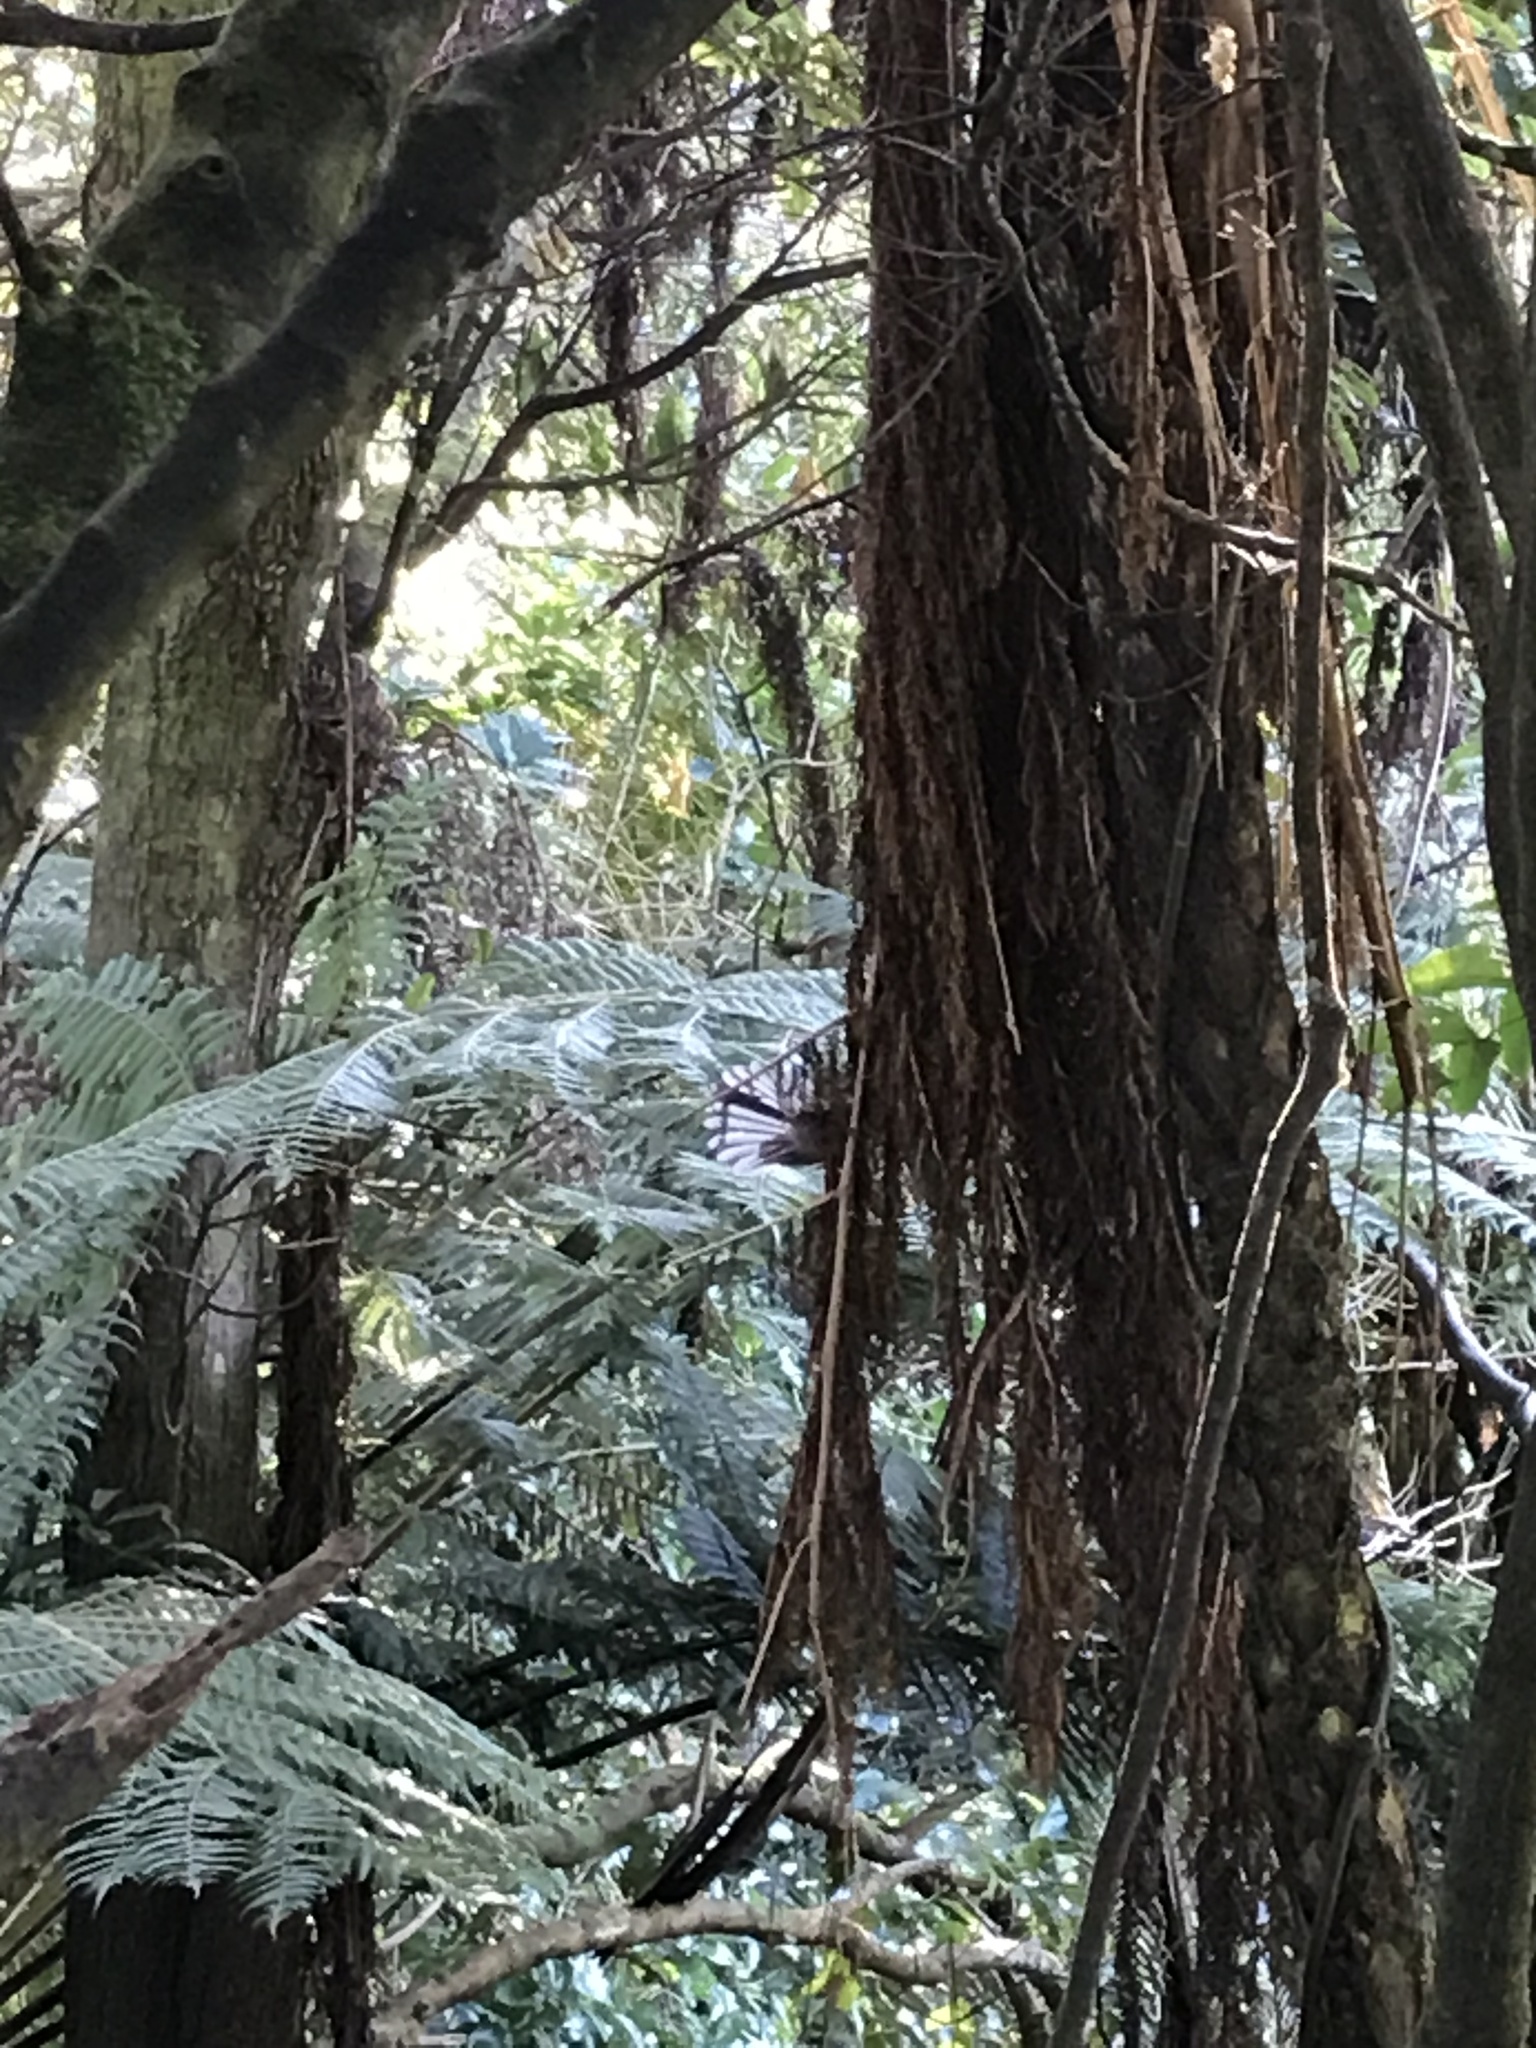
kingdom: Animalia
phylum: Chordata
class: Aves
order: Passeriformes
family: Rhipiduridae
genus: Rhipidura
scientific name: Rhipidura fuliginosa
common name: New zealand fantail
